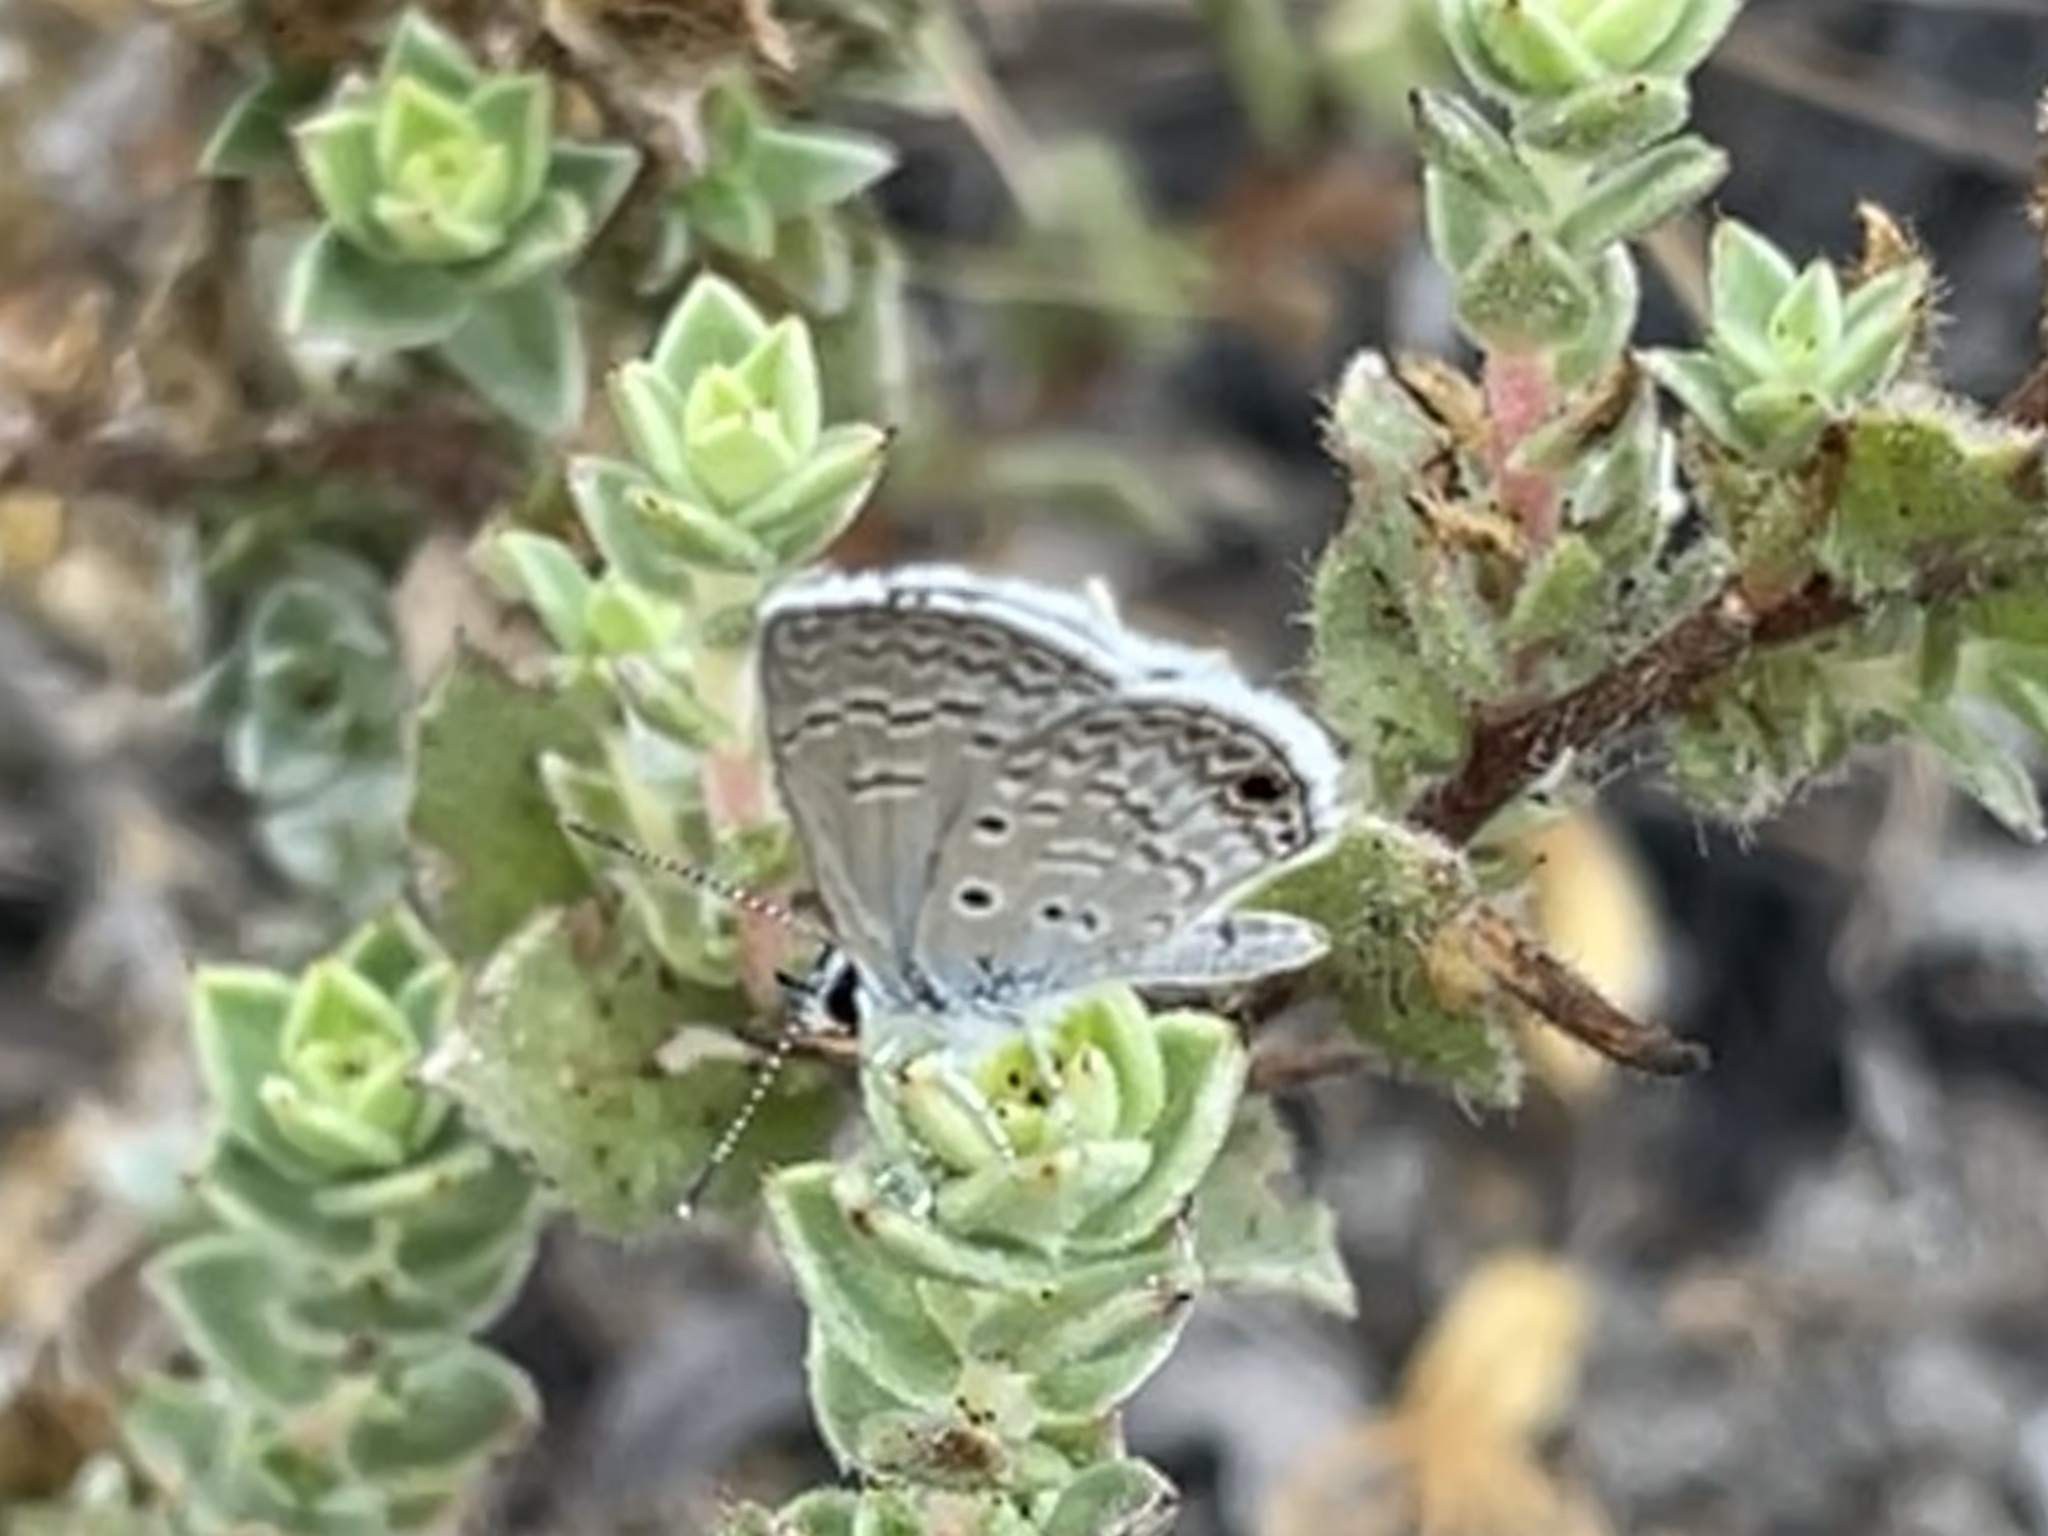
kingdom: Animalia
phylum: Arthropoda
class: Insecta
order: Lepidoptera
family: Lycaenidae
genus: Hemiargus
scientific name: Hemiargus ceraunus
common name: Ceraunus blue
